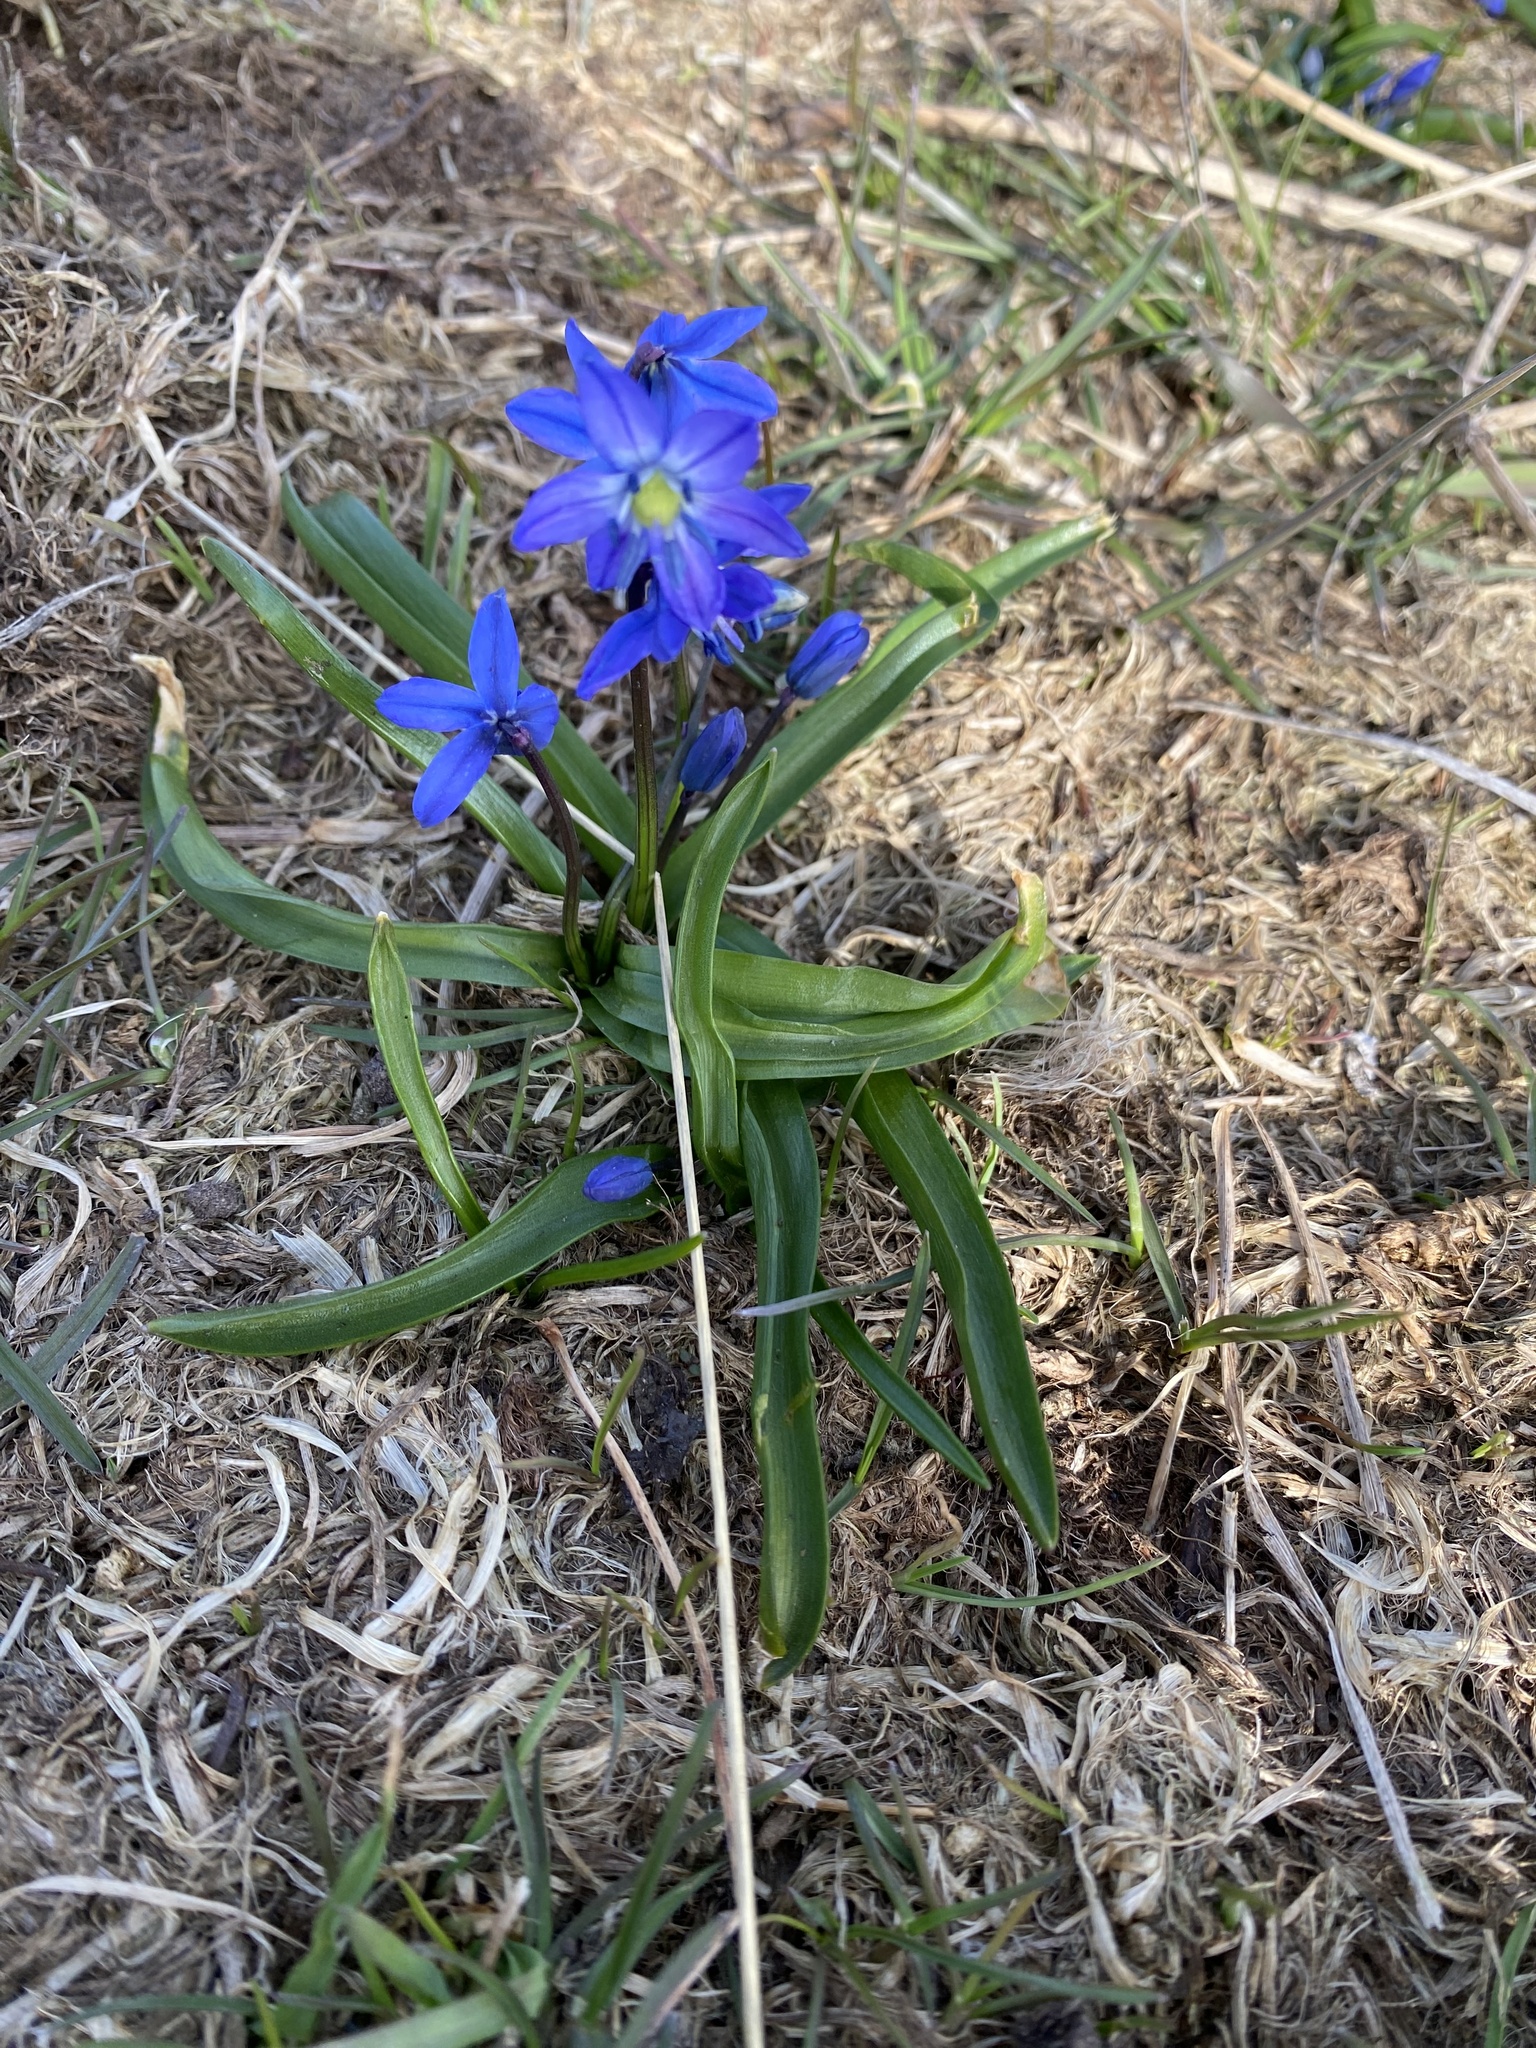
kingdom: Plantae
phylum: Tracheophyta
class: Liliopsida
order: Asparagales
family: Asparagaceae
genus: Scilla
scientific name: Scilla siberica
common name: Siberian squill
